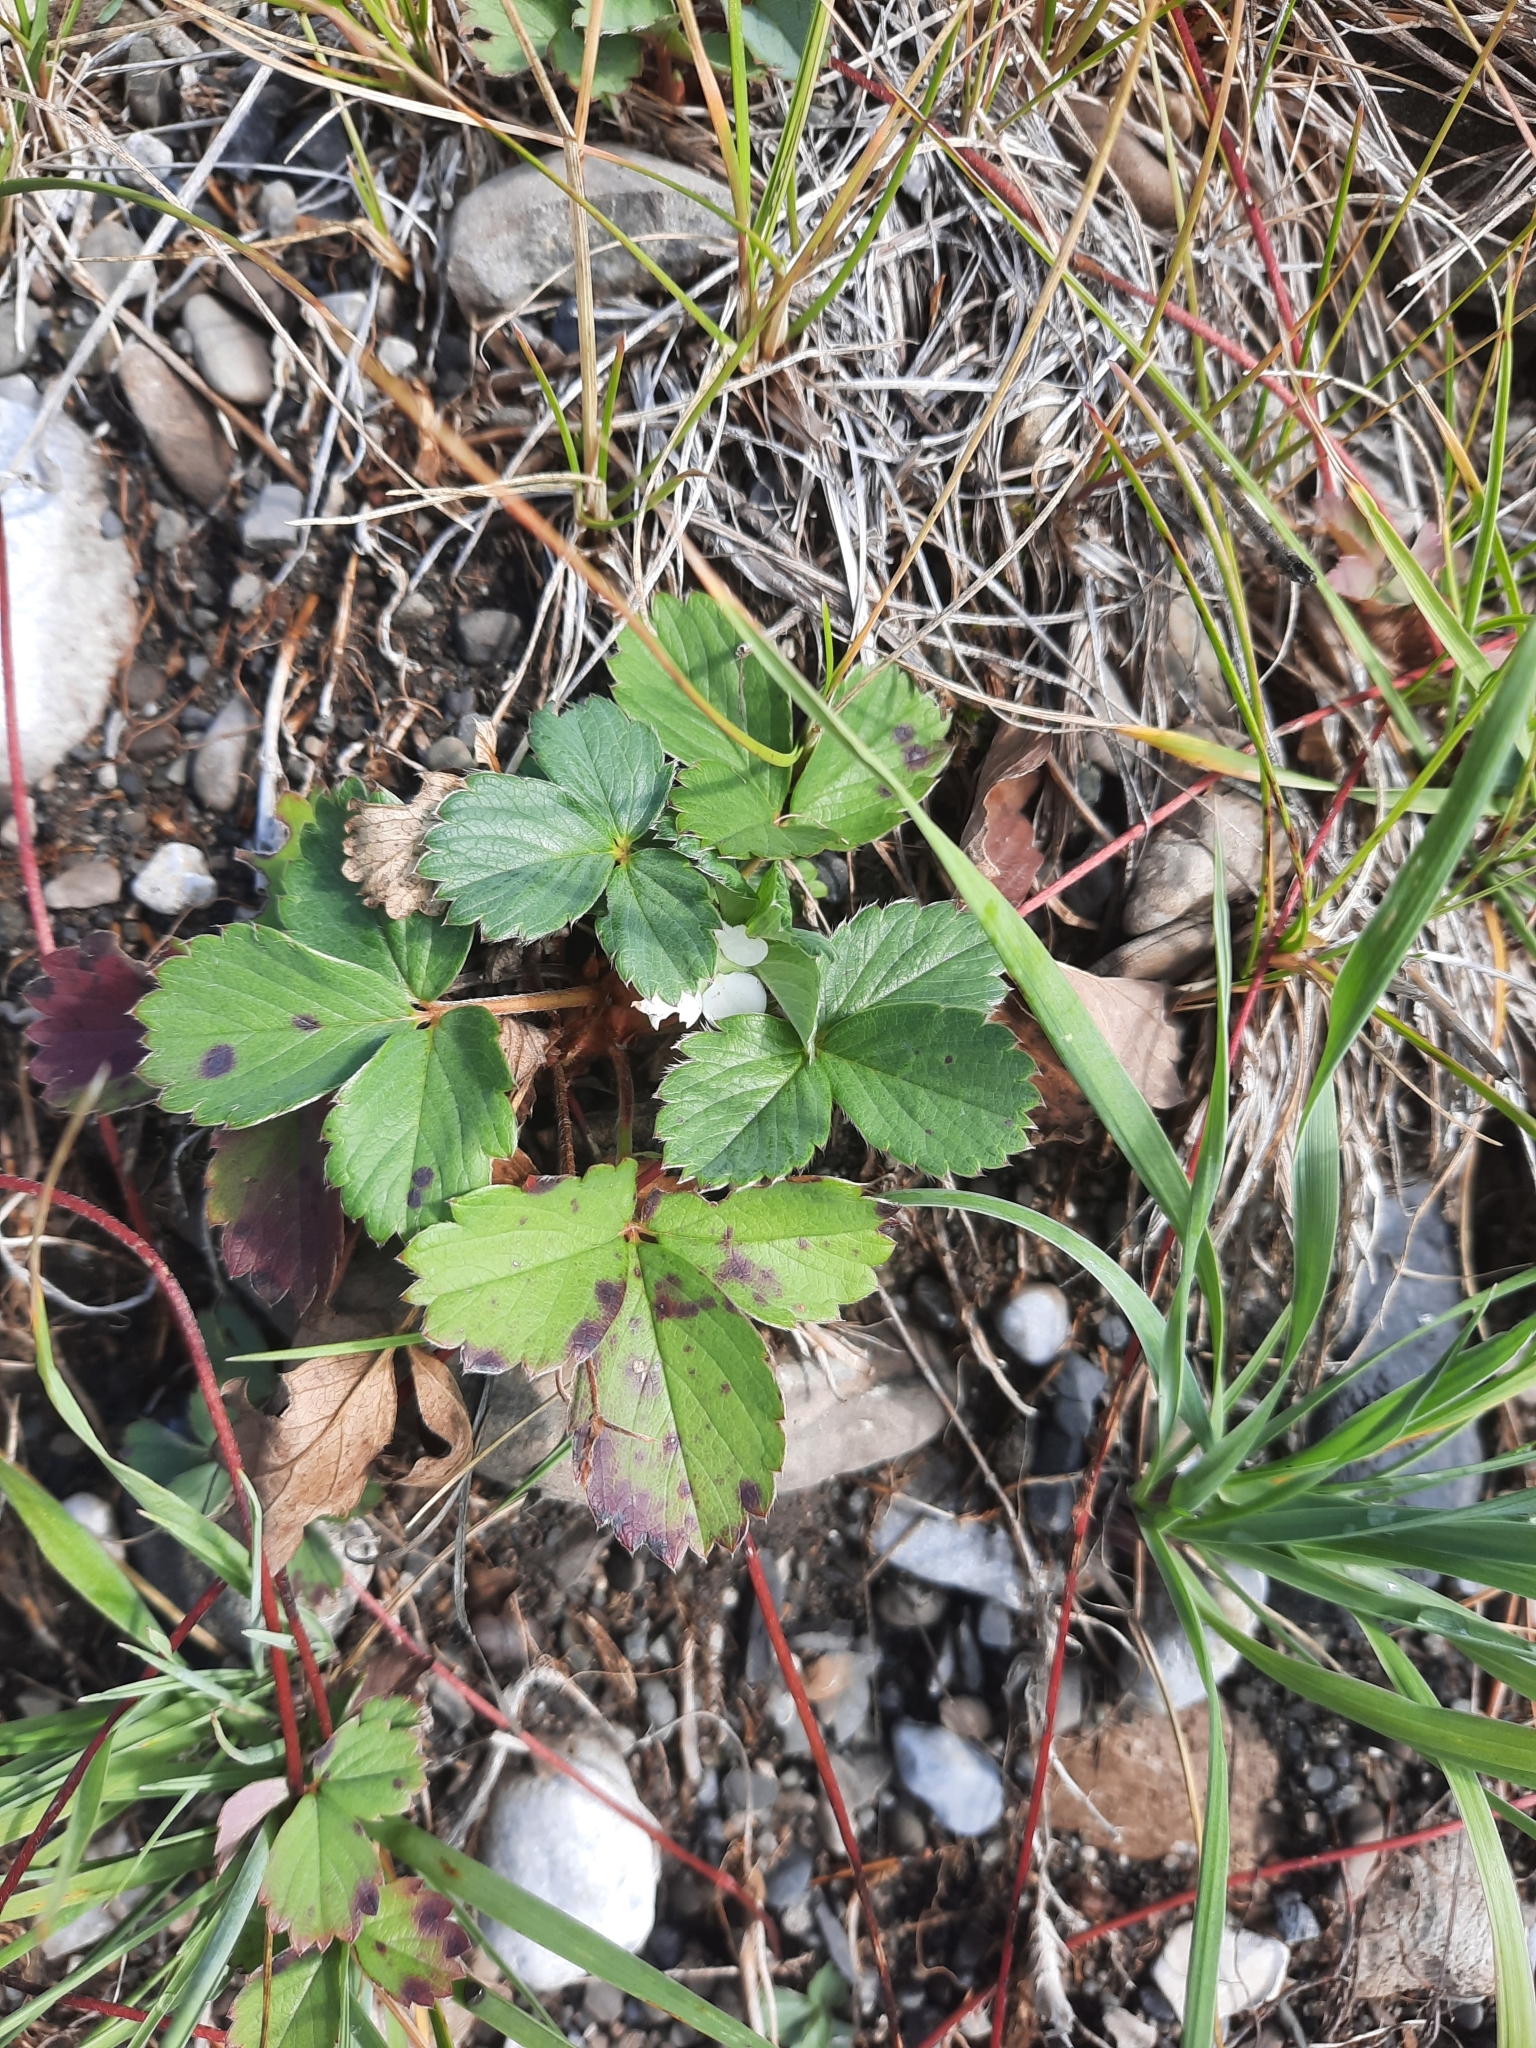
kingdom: Plantae
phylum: Tracheophyta
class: Magnoliopsida
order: Rosales
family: Rosaceae
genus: Fragaria
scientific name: Fragaria virginiana
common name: Thickleaved wild strawberry
